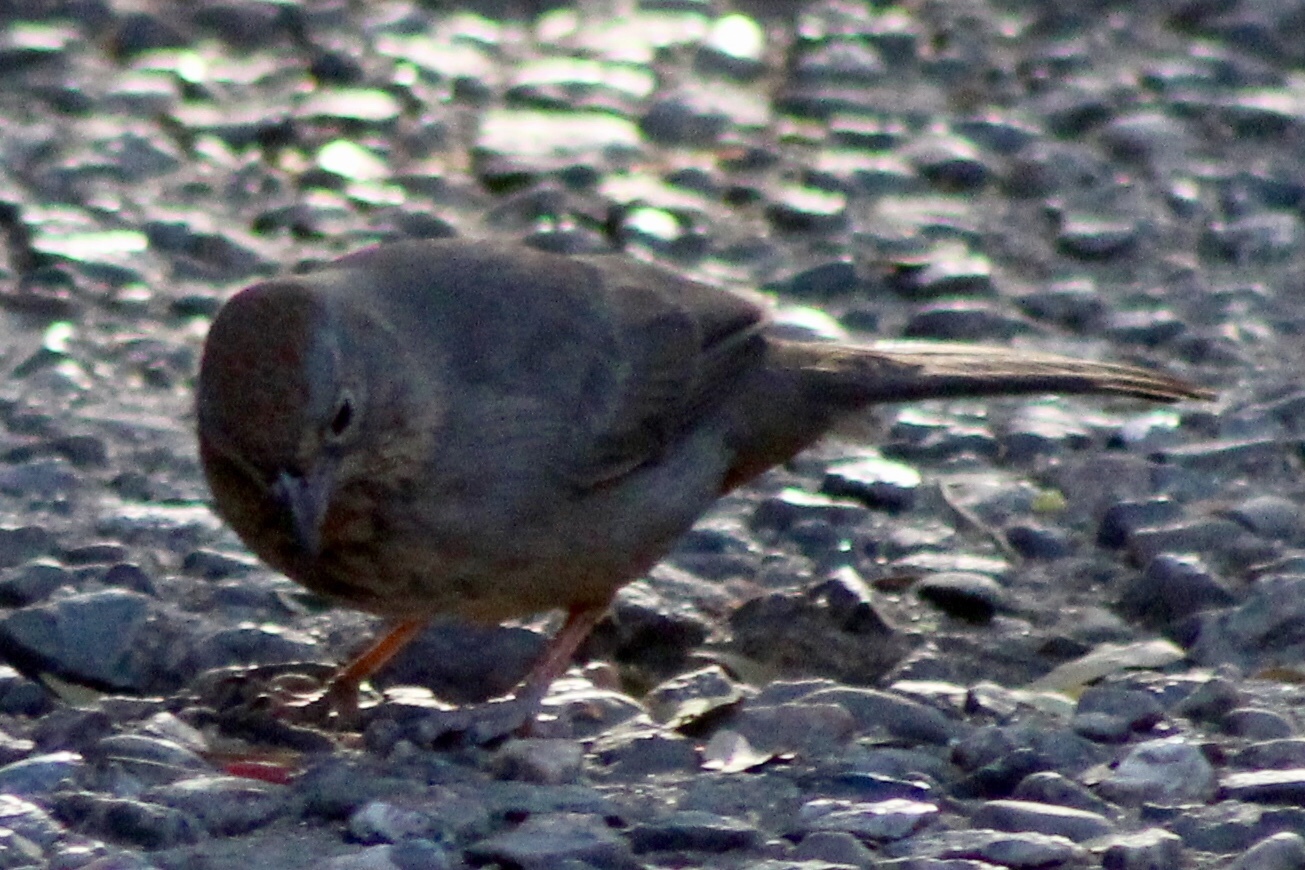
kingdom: Animalia
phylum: Chordata
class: Aves
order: Passeriformes
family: Passerellidae
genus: Melozone
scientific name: Melozone fusca
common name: Canyon towhee
